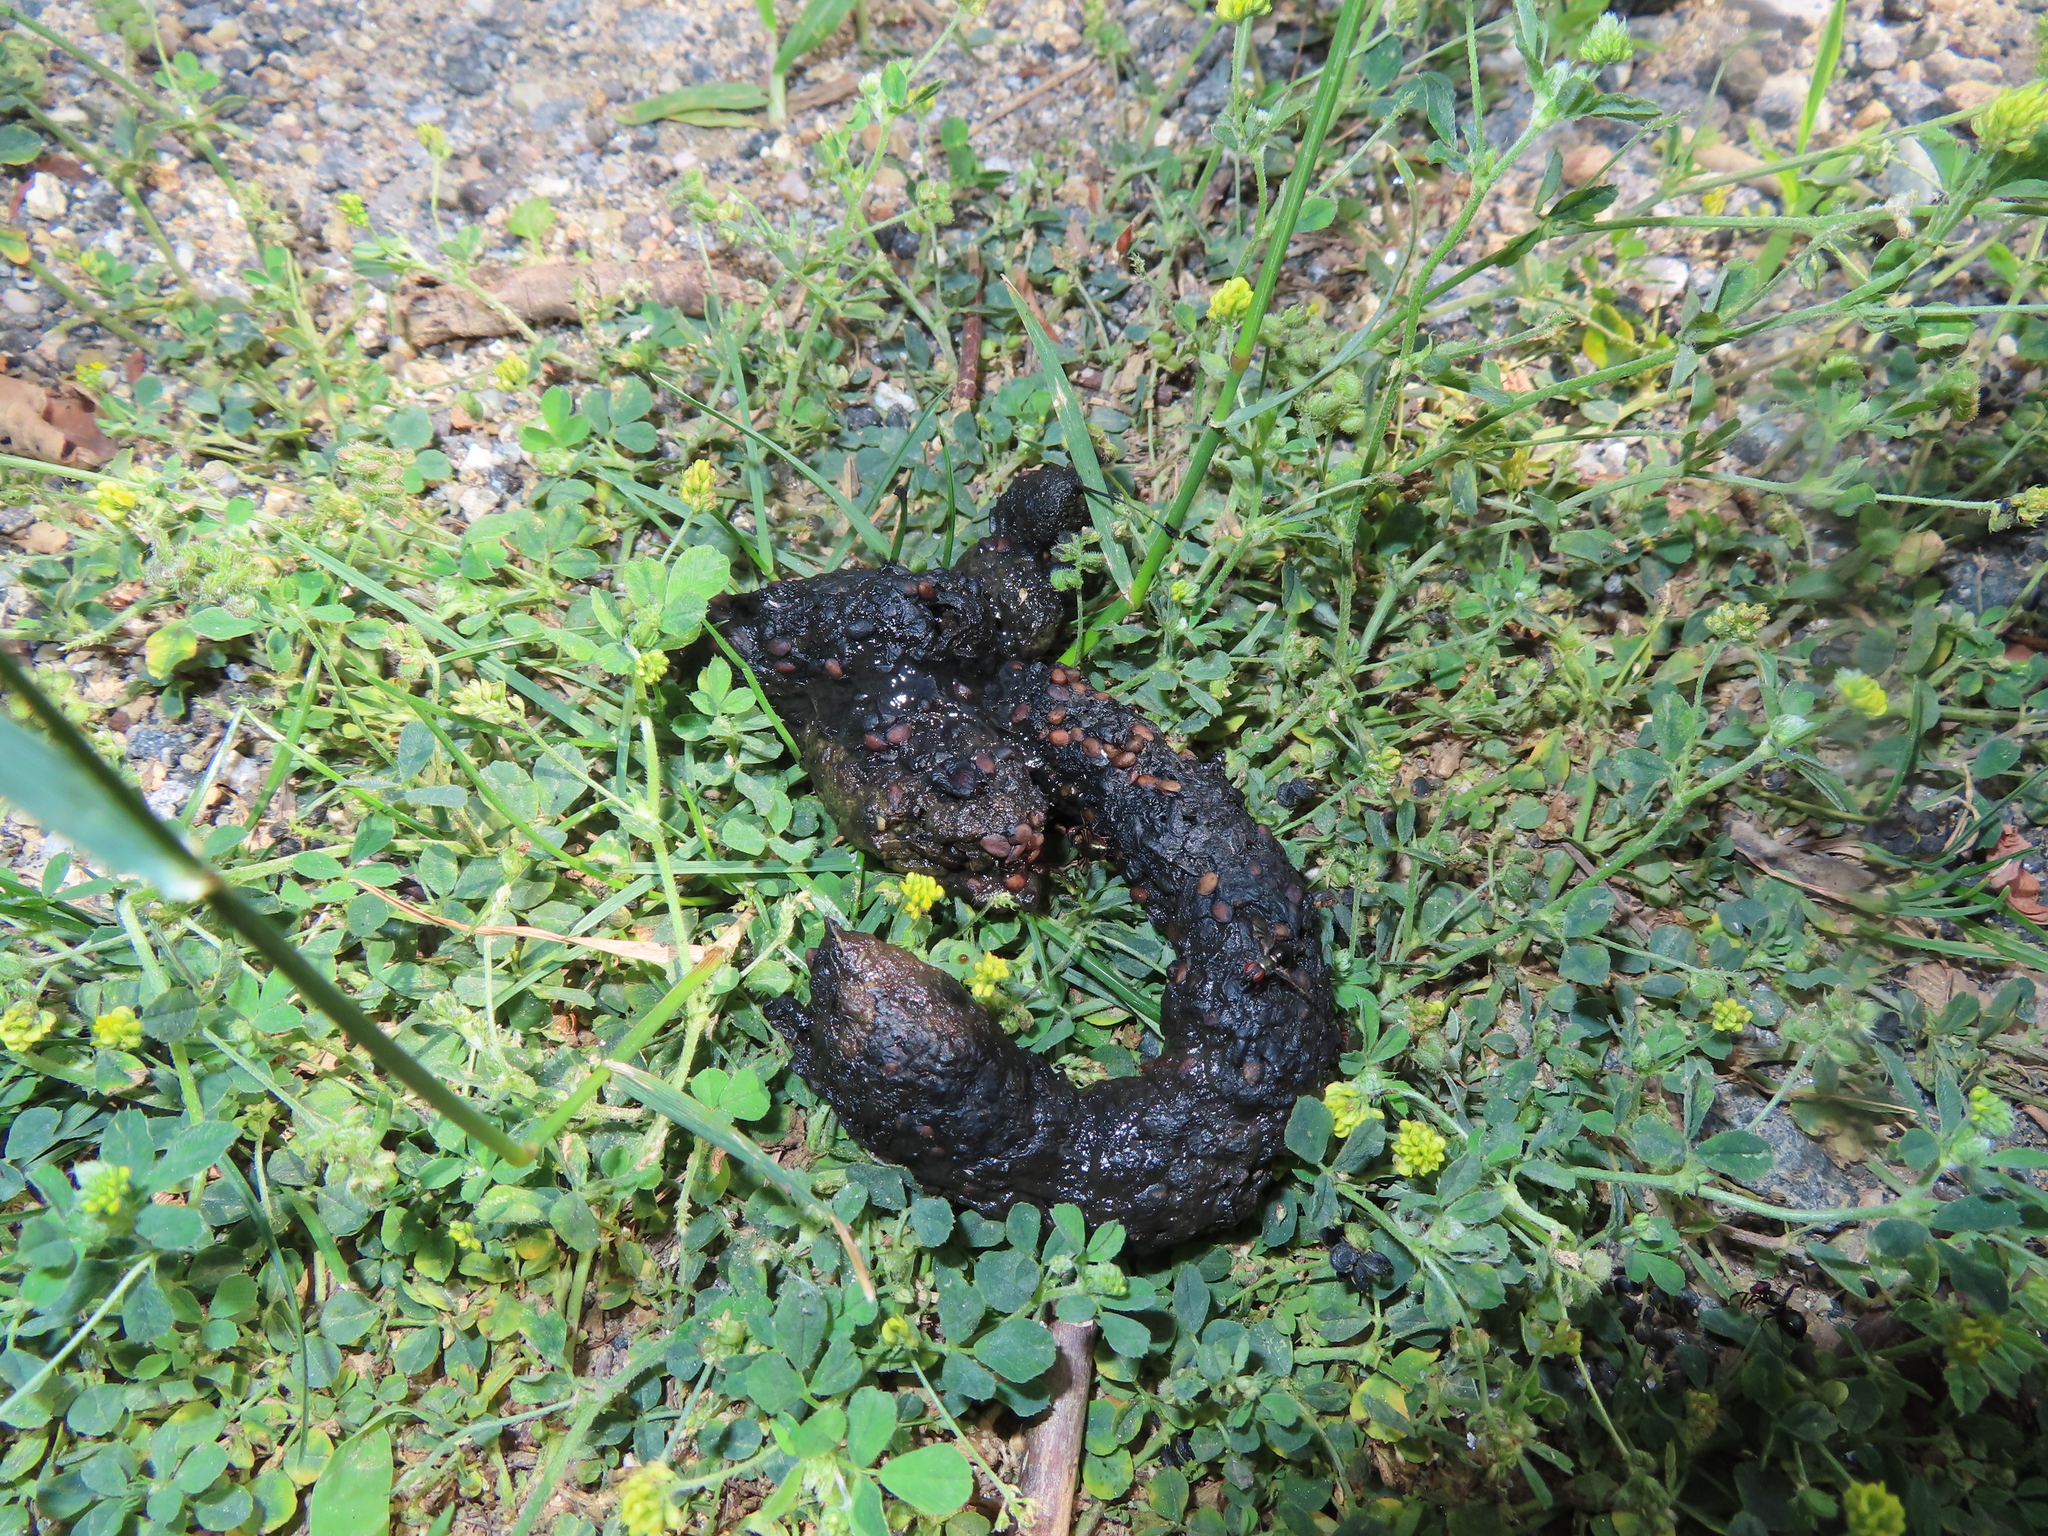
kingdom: Animalia
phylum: Chordata
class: Mammalia
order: Carnivora
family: Procyonidae
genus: Procyon
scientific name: Procyon lotor
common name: Raccoon
